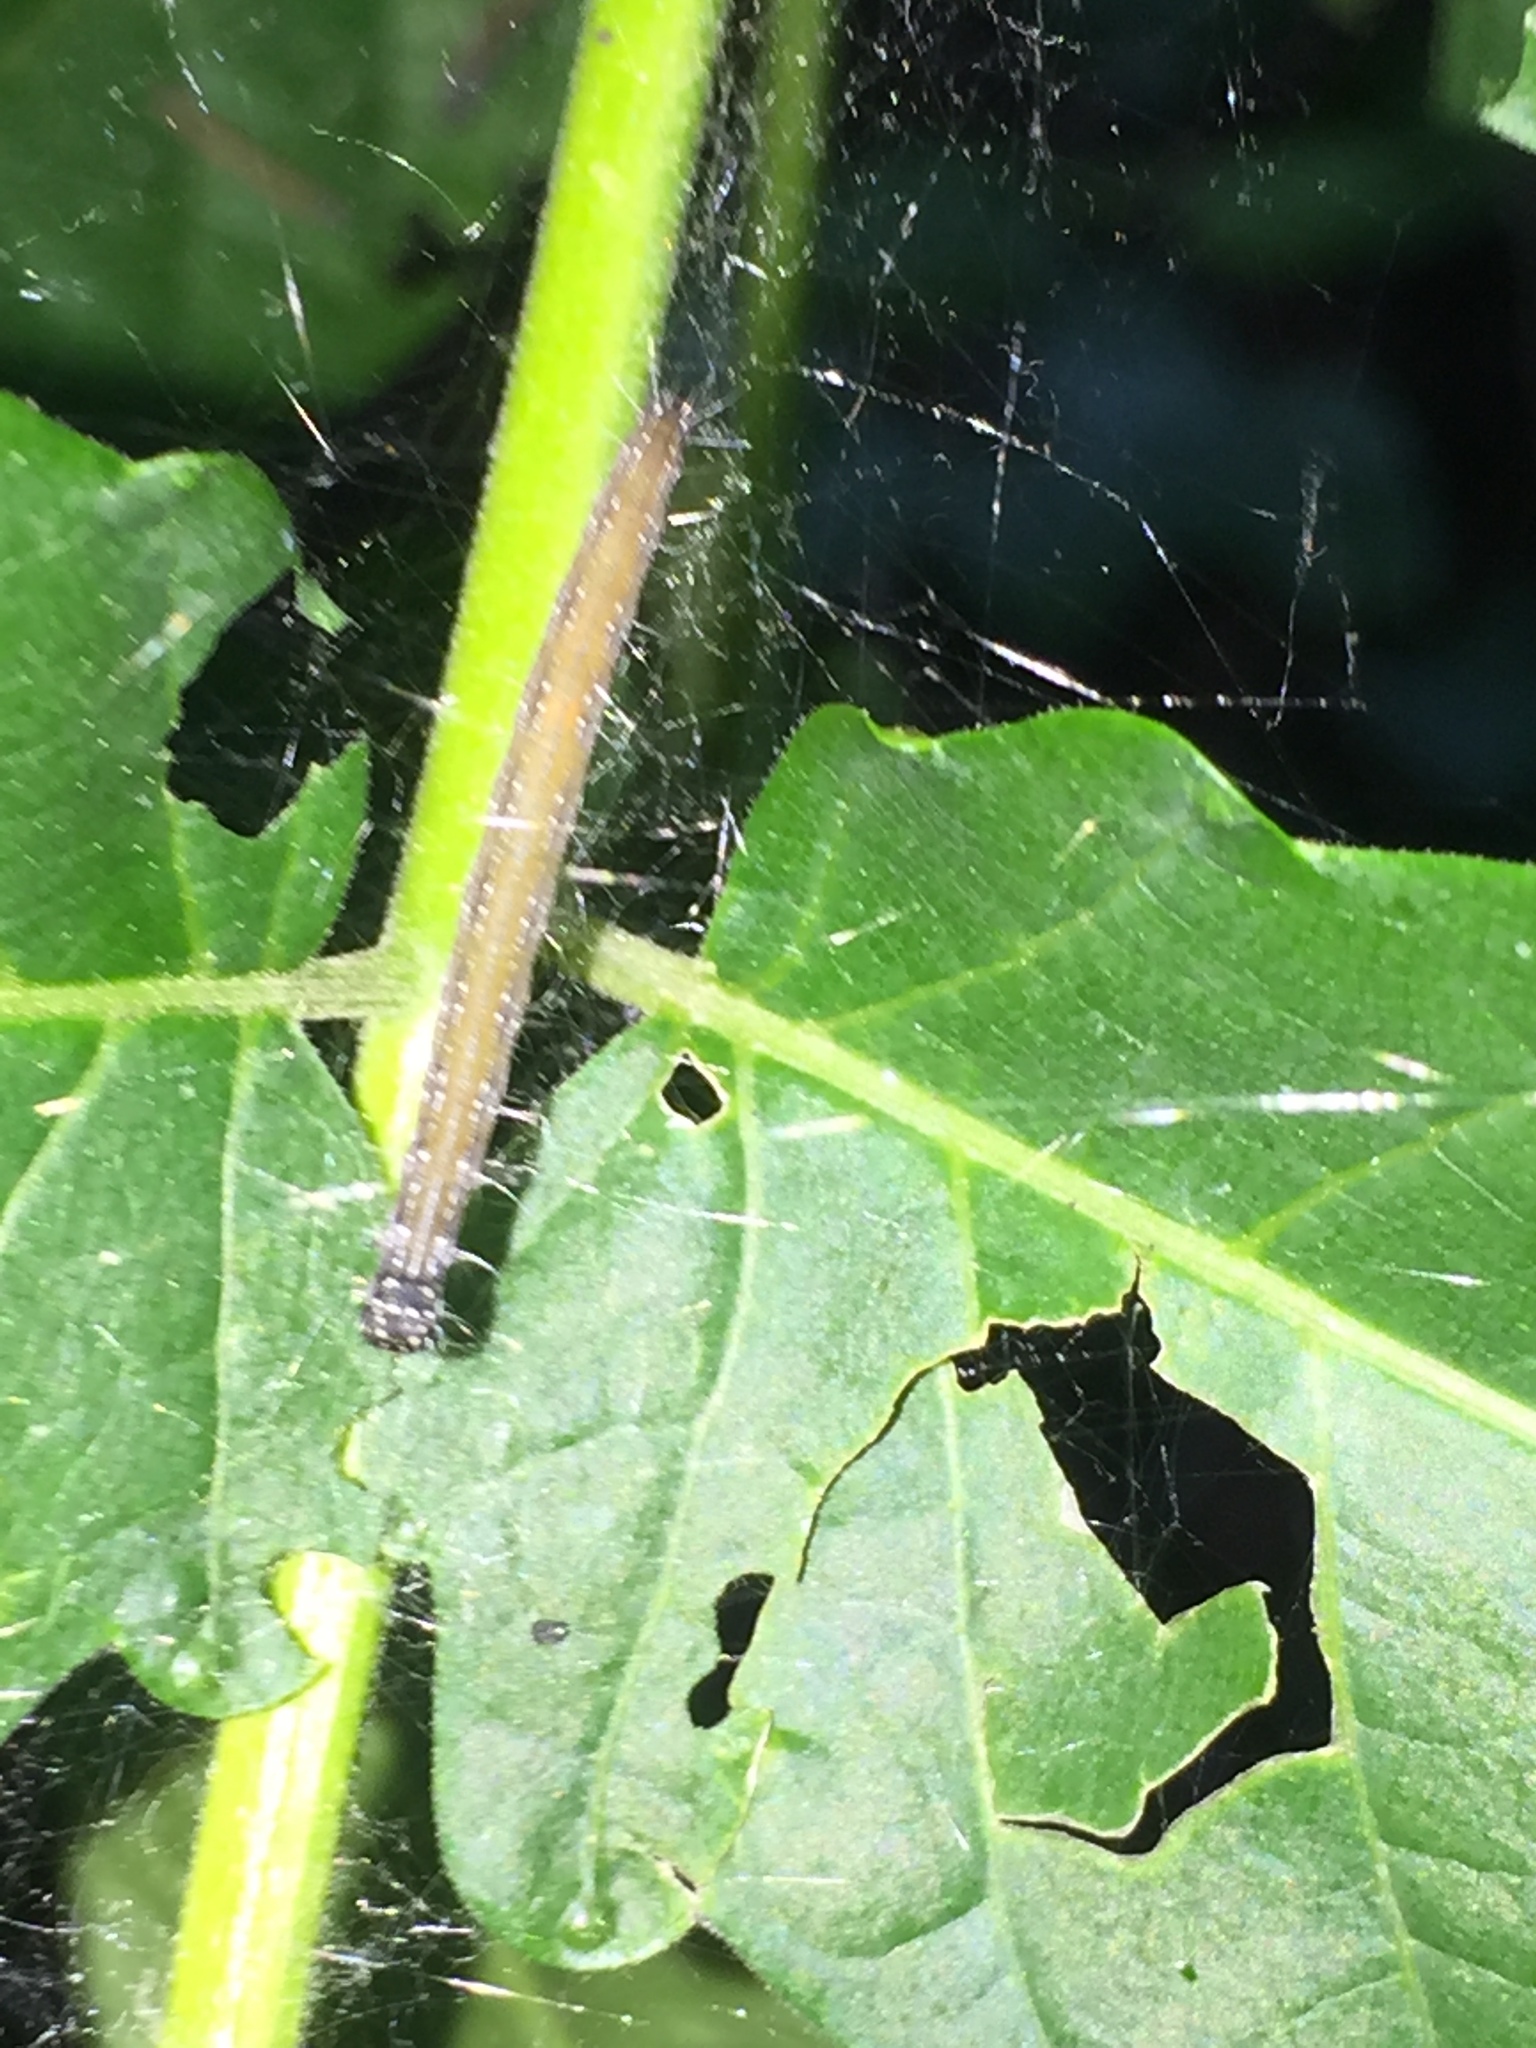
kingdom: Animalia
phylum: Arthropoda
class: Insecta
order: Lepidoptera
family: Attevidae
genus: Atteva
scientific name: Atteva punctella
